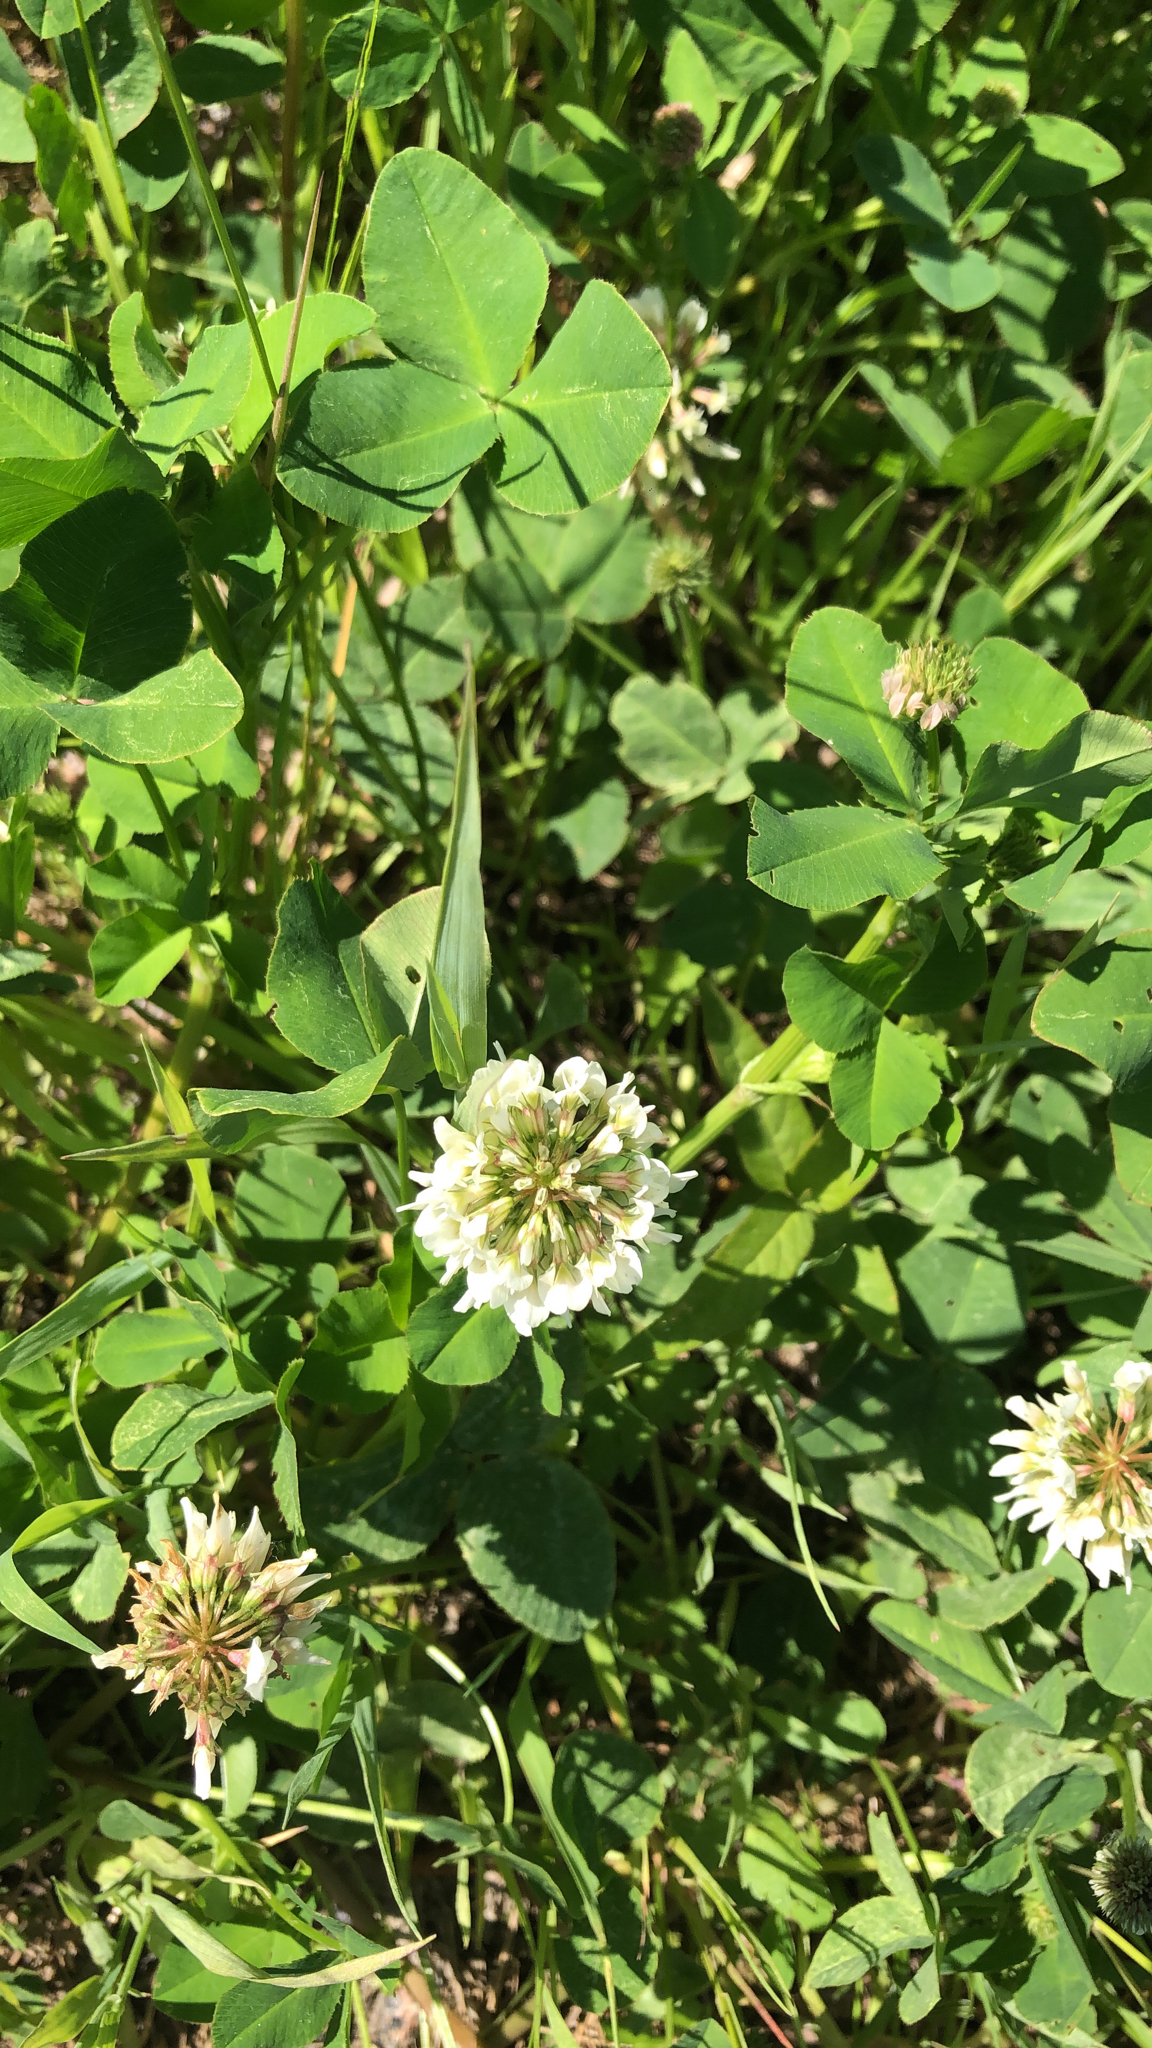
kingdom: Plantae
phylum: Tracheophyta
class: Magnoliopsida
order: Fabales
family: Fabaceae
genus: Trifolium
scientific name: Trifolium repens
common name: White clover
